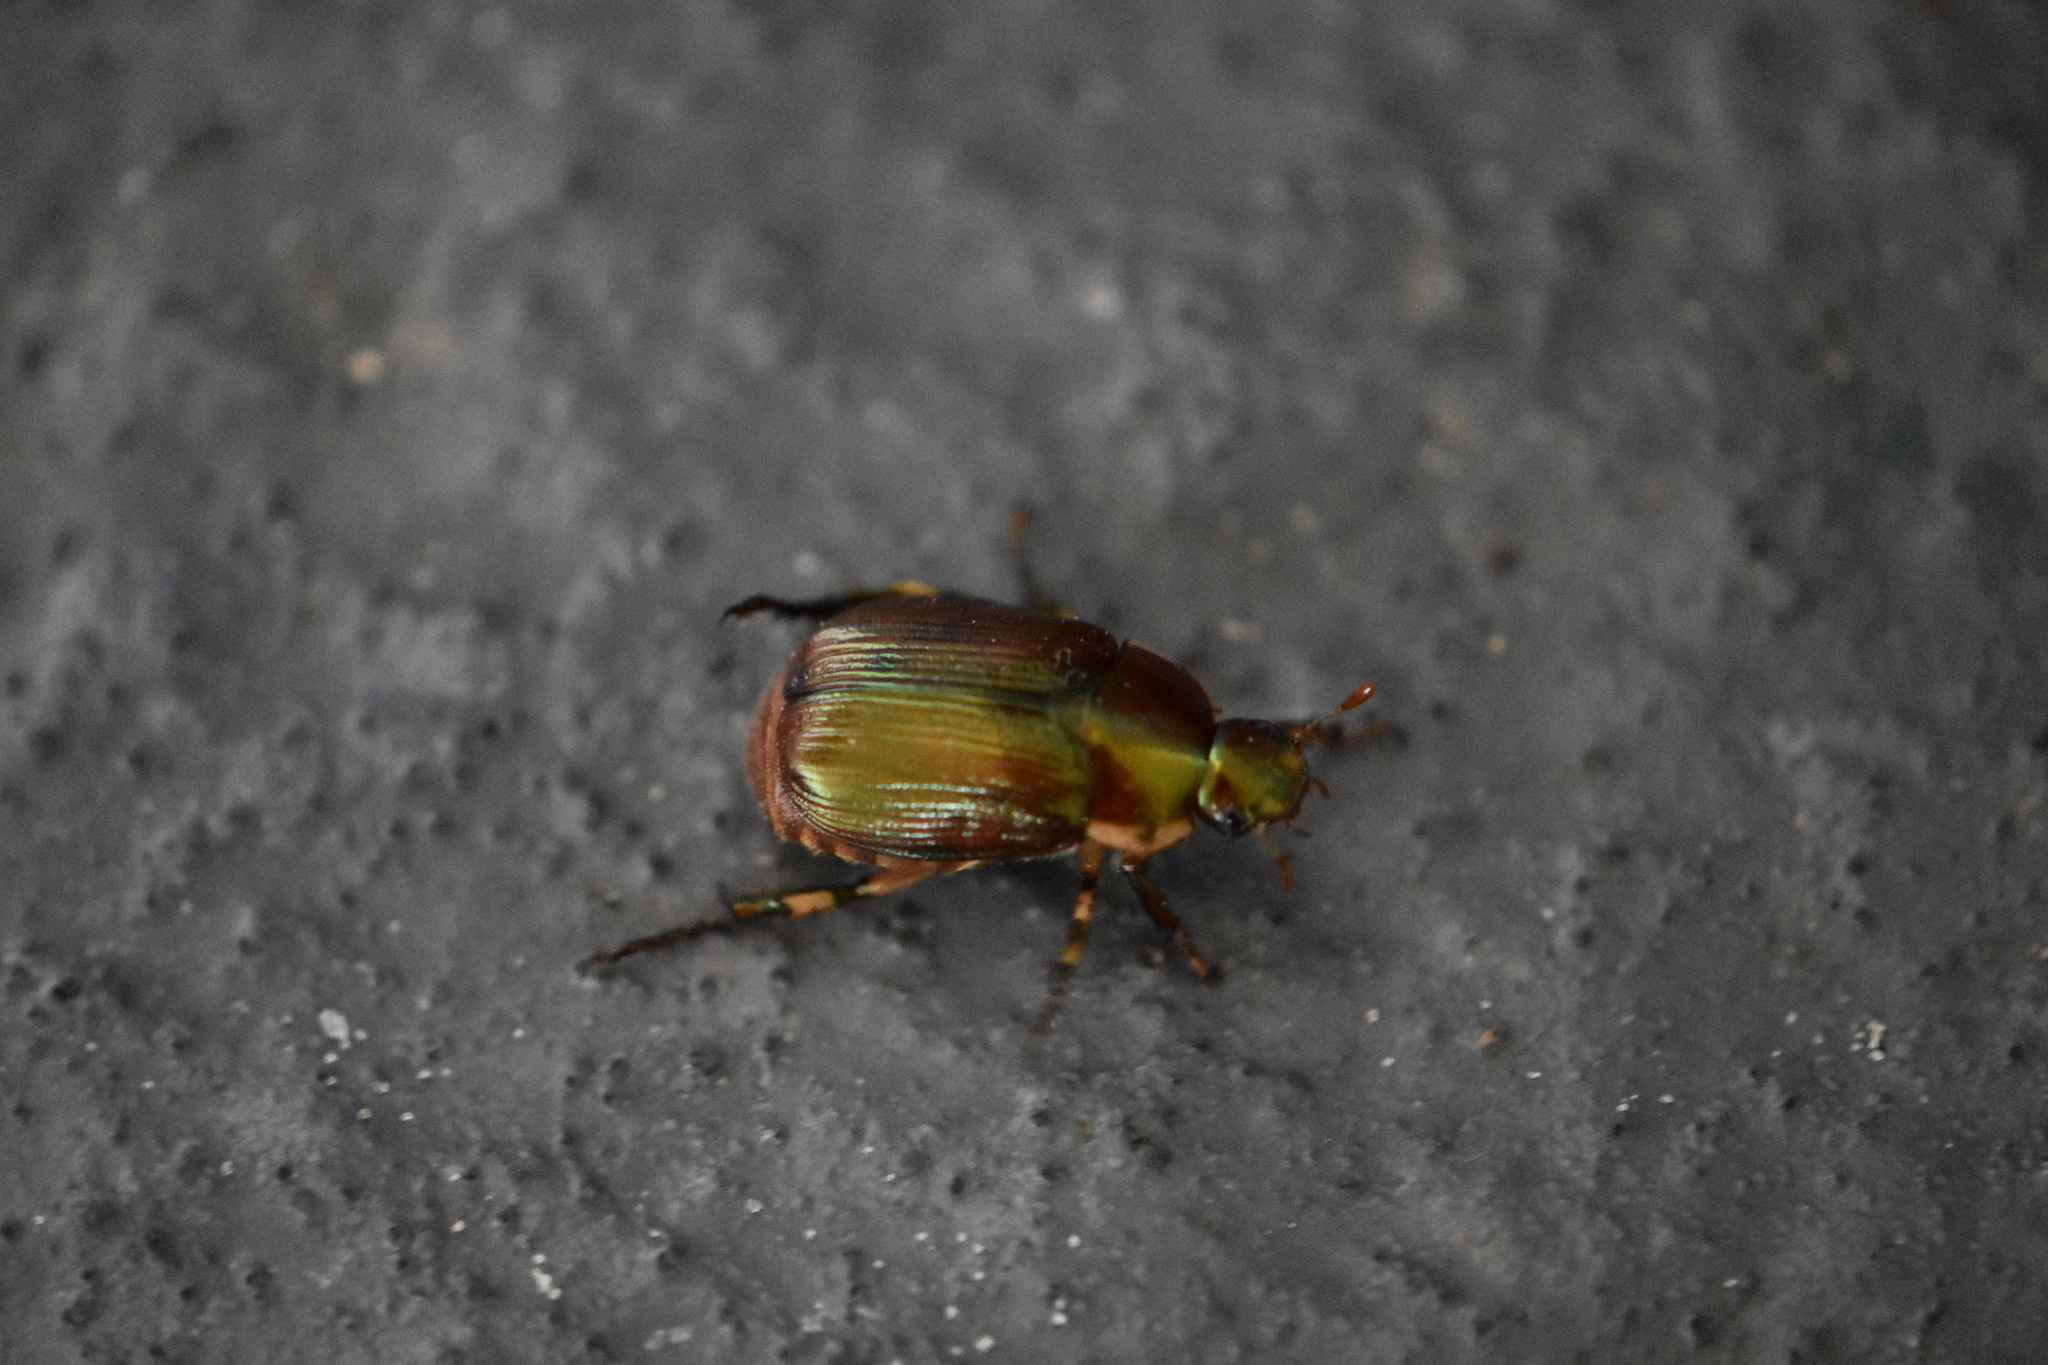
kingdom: Animalia
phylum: Arthropoda
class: Insecta
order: Coleoptera
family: Scarabaeidae
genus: Callistethus
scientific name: Callistethus marginatus
